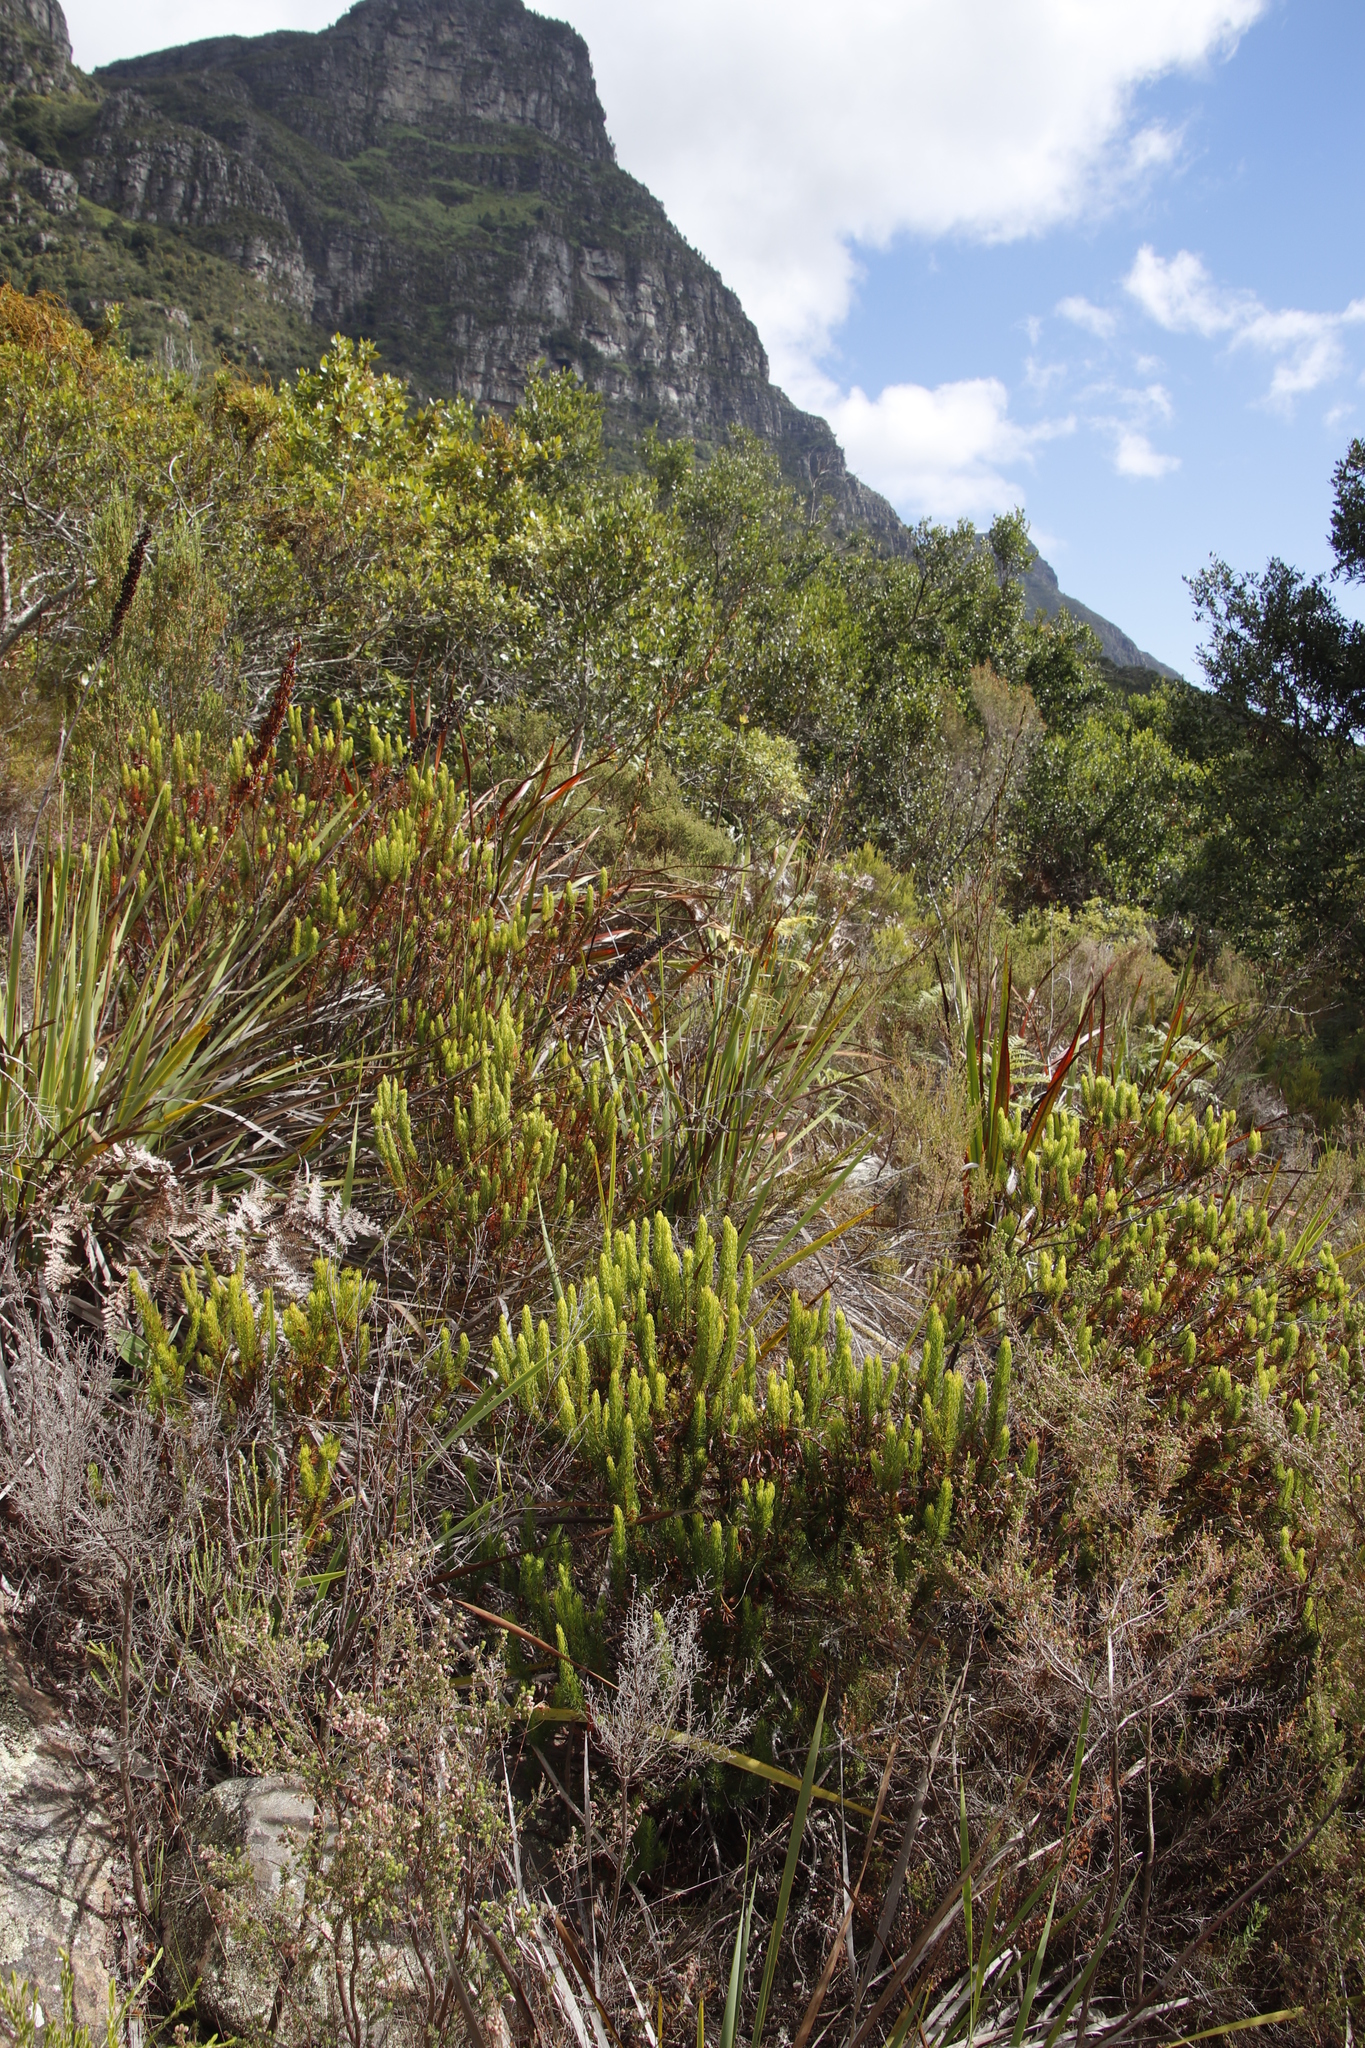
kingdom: Plantae
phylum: Tracheophyta
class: Magnoliopsida
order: Ericales
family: Ericaceae
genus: Erica
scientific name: Erica plukenetii
